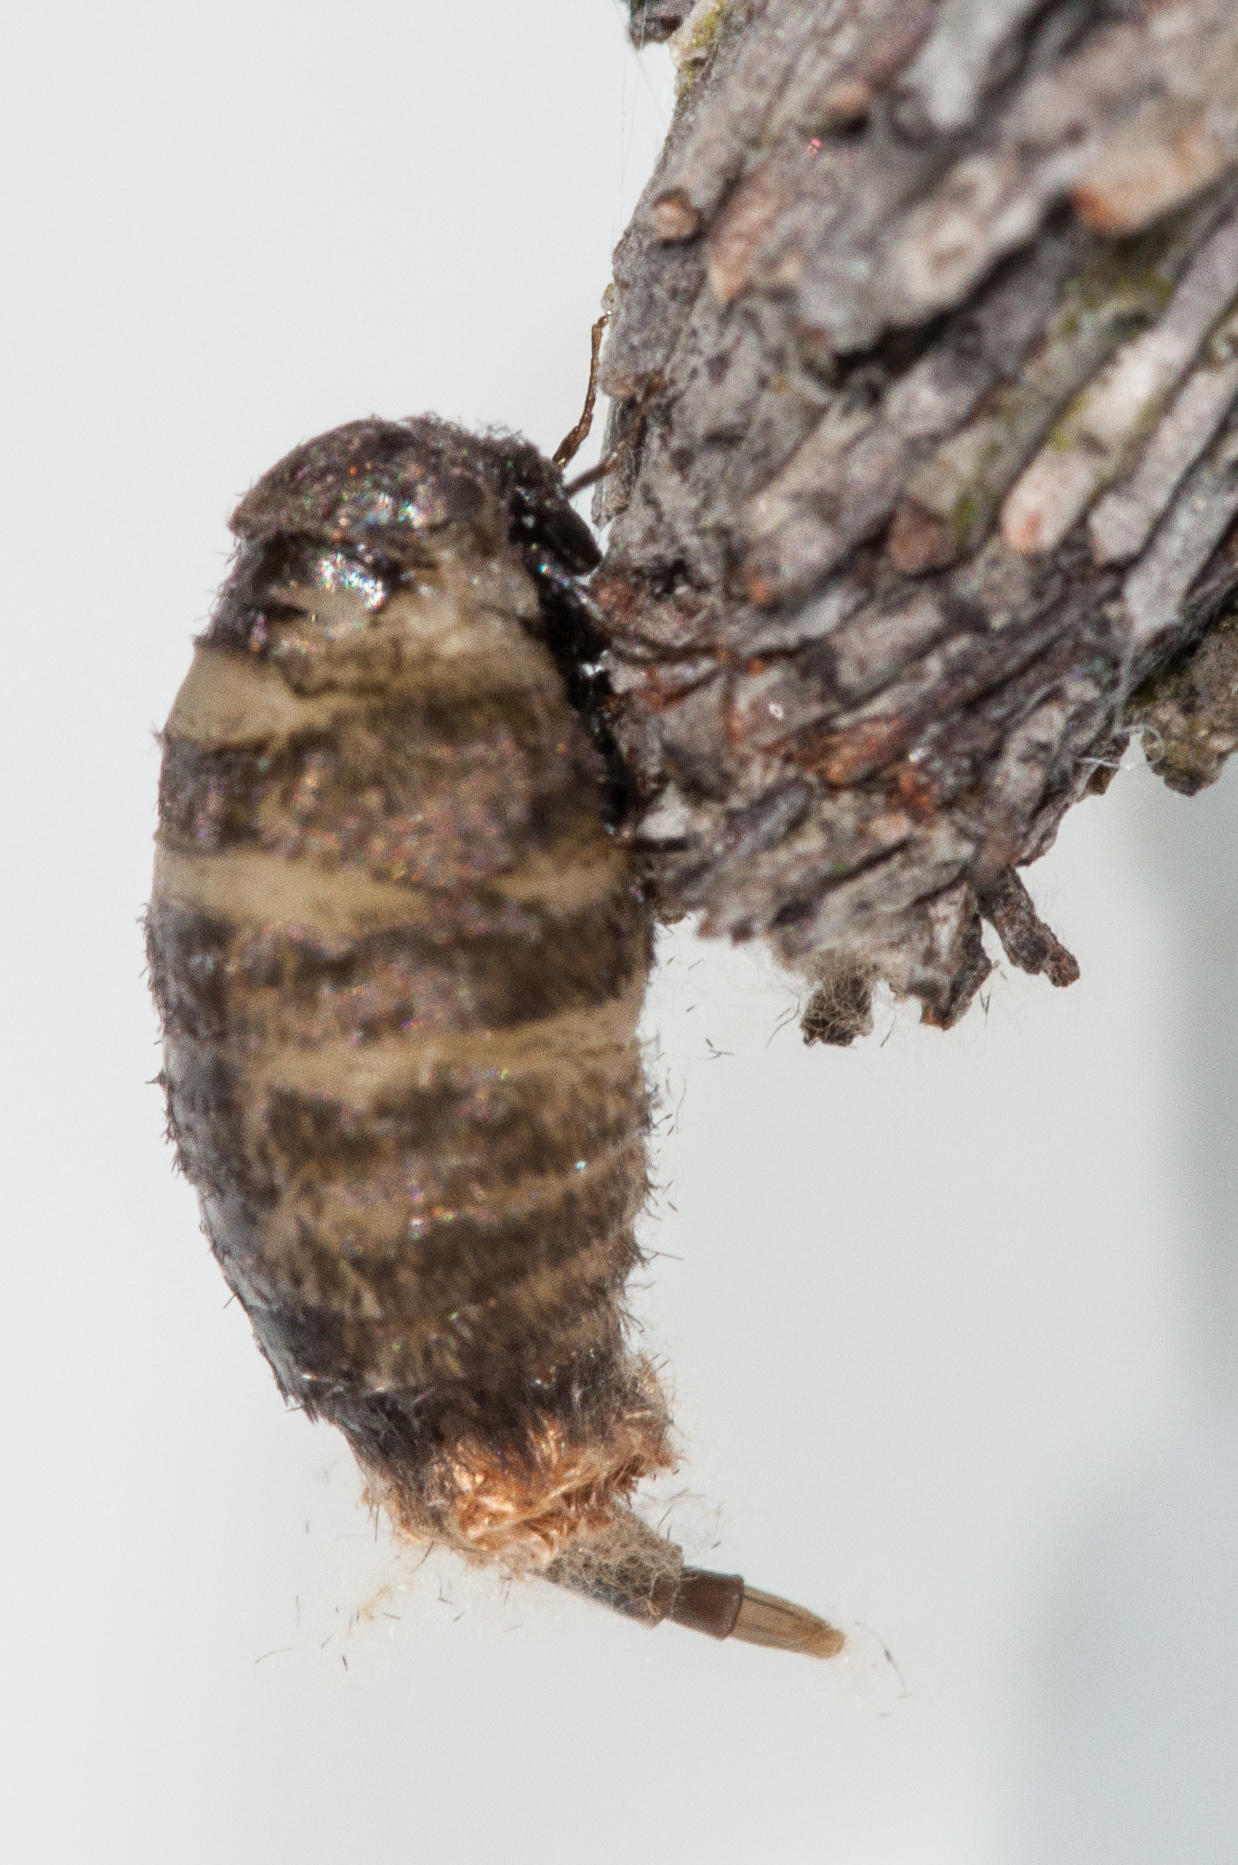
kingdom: Animalia
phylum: Arthropoda
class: Insecta
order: Lepidoptera
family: Psychidae
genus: Typhonia
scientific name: Typhonia picea
